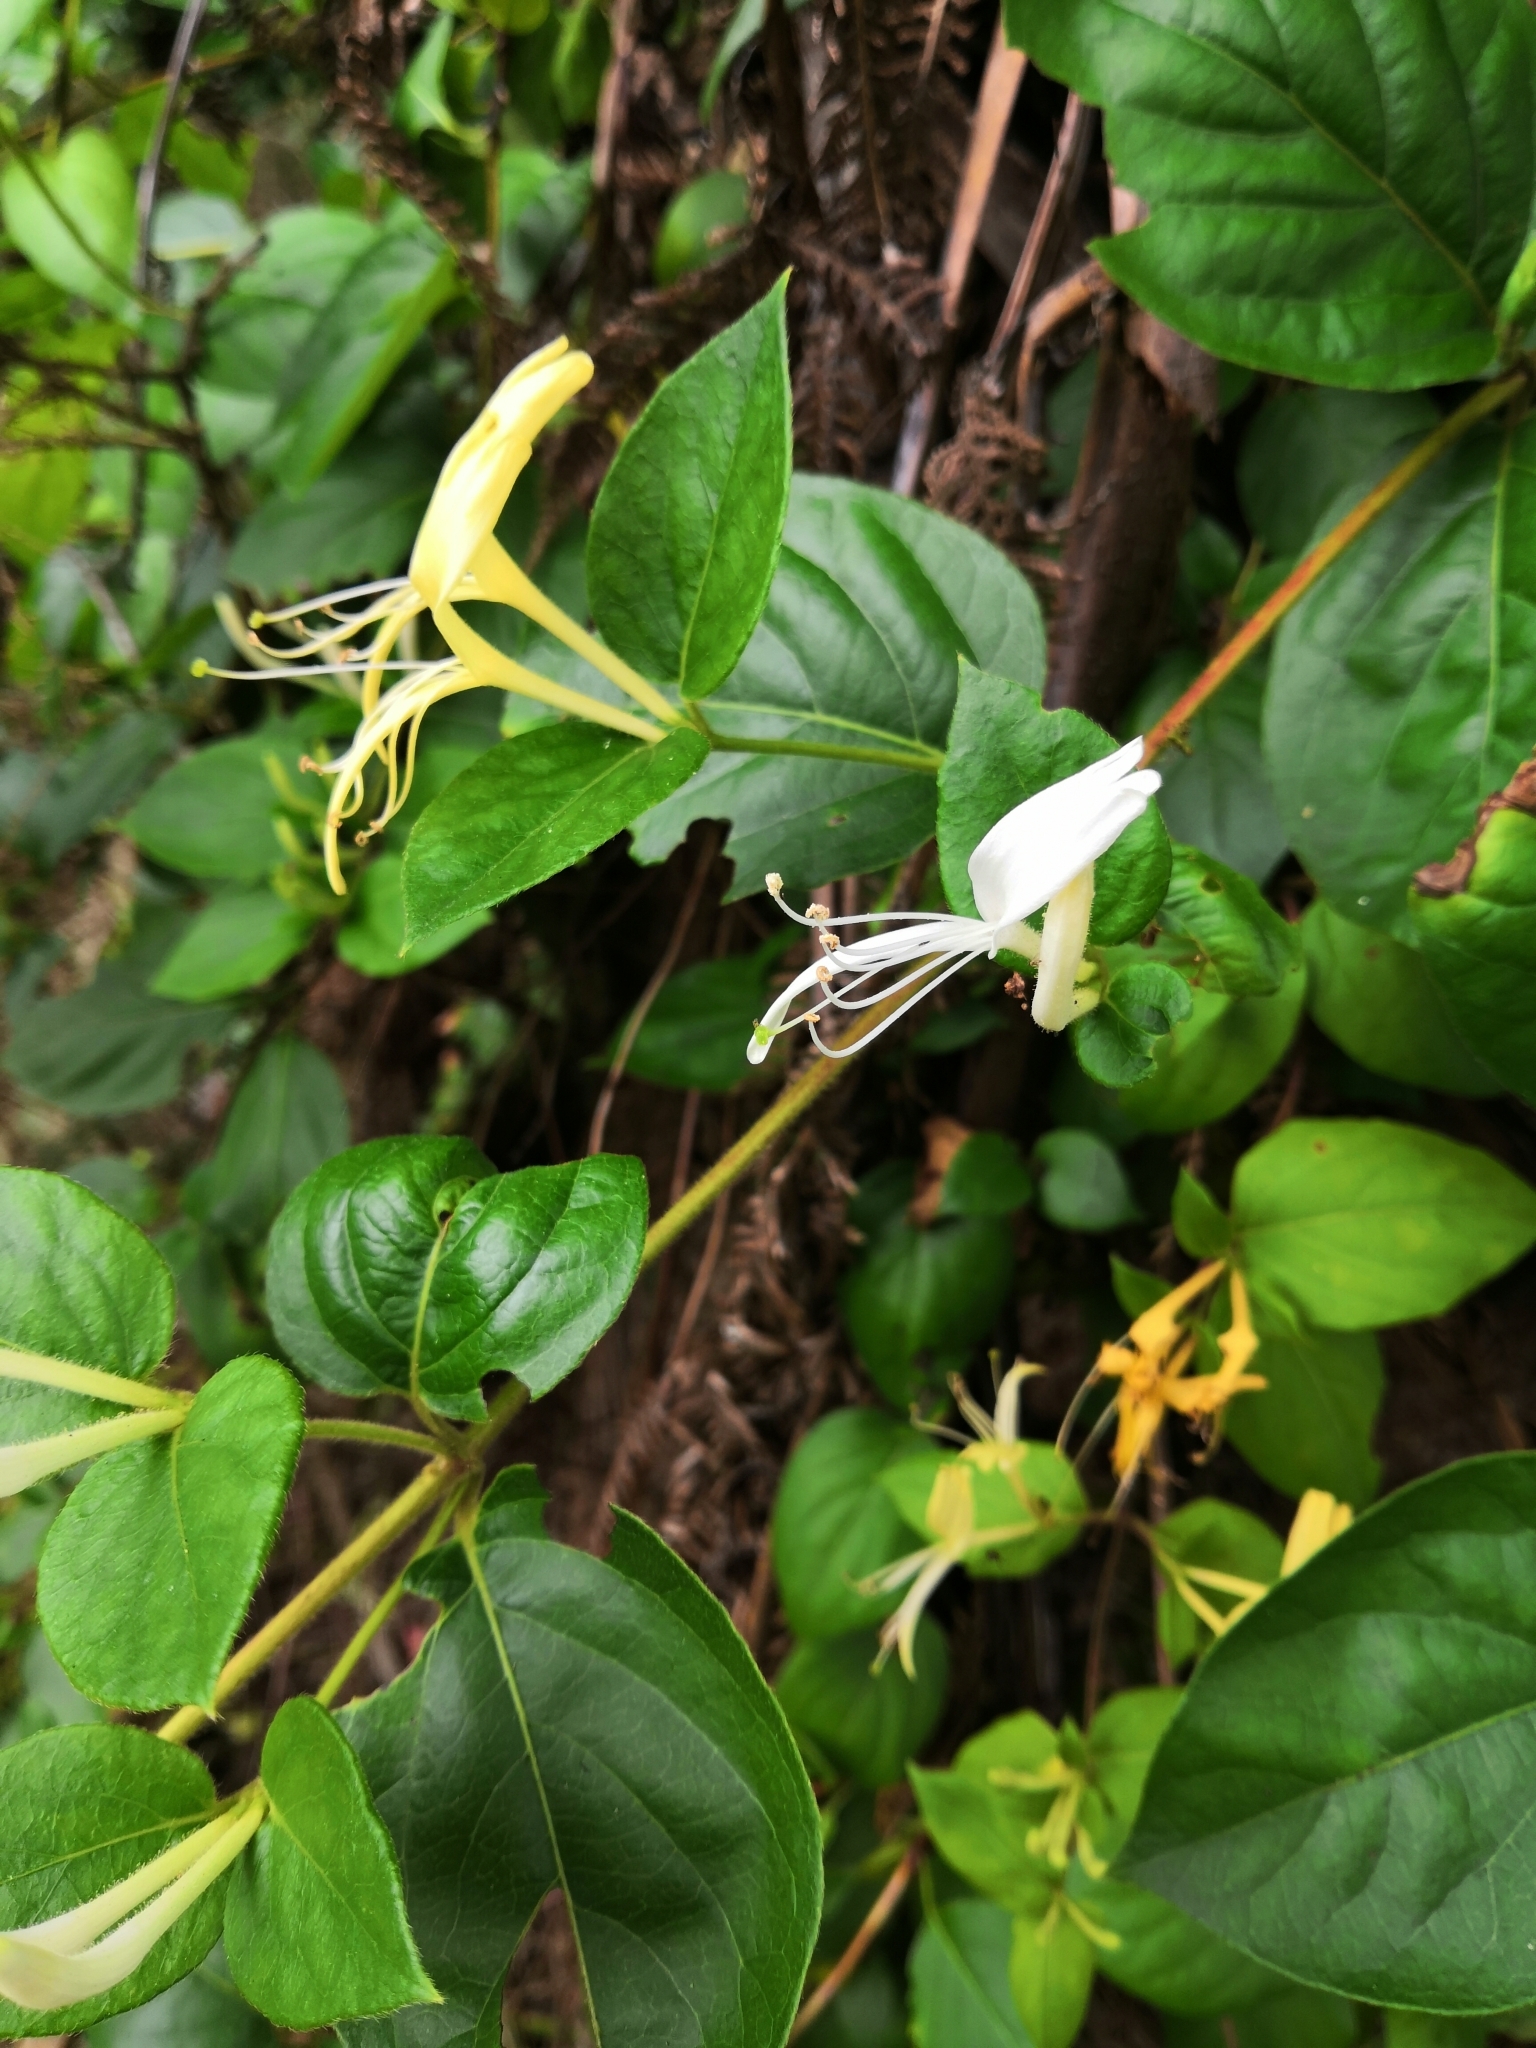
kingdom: Plantae
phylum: Tracheophyta
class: Magnoliopsida
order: Dipsacales
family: Caprifoliaceae
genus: Lonicera
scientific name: Lonicera japonica
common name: Japanese honeysuckle
